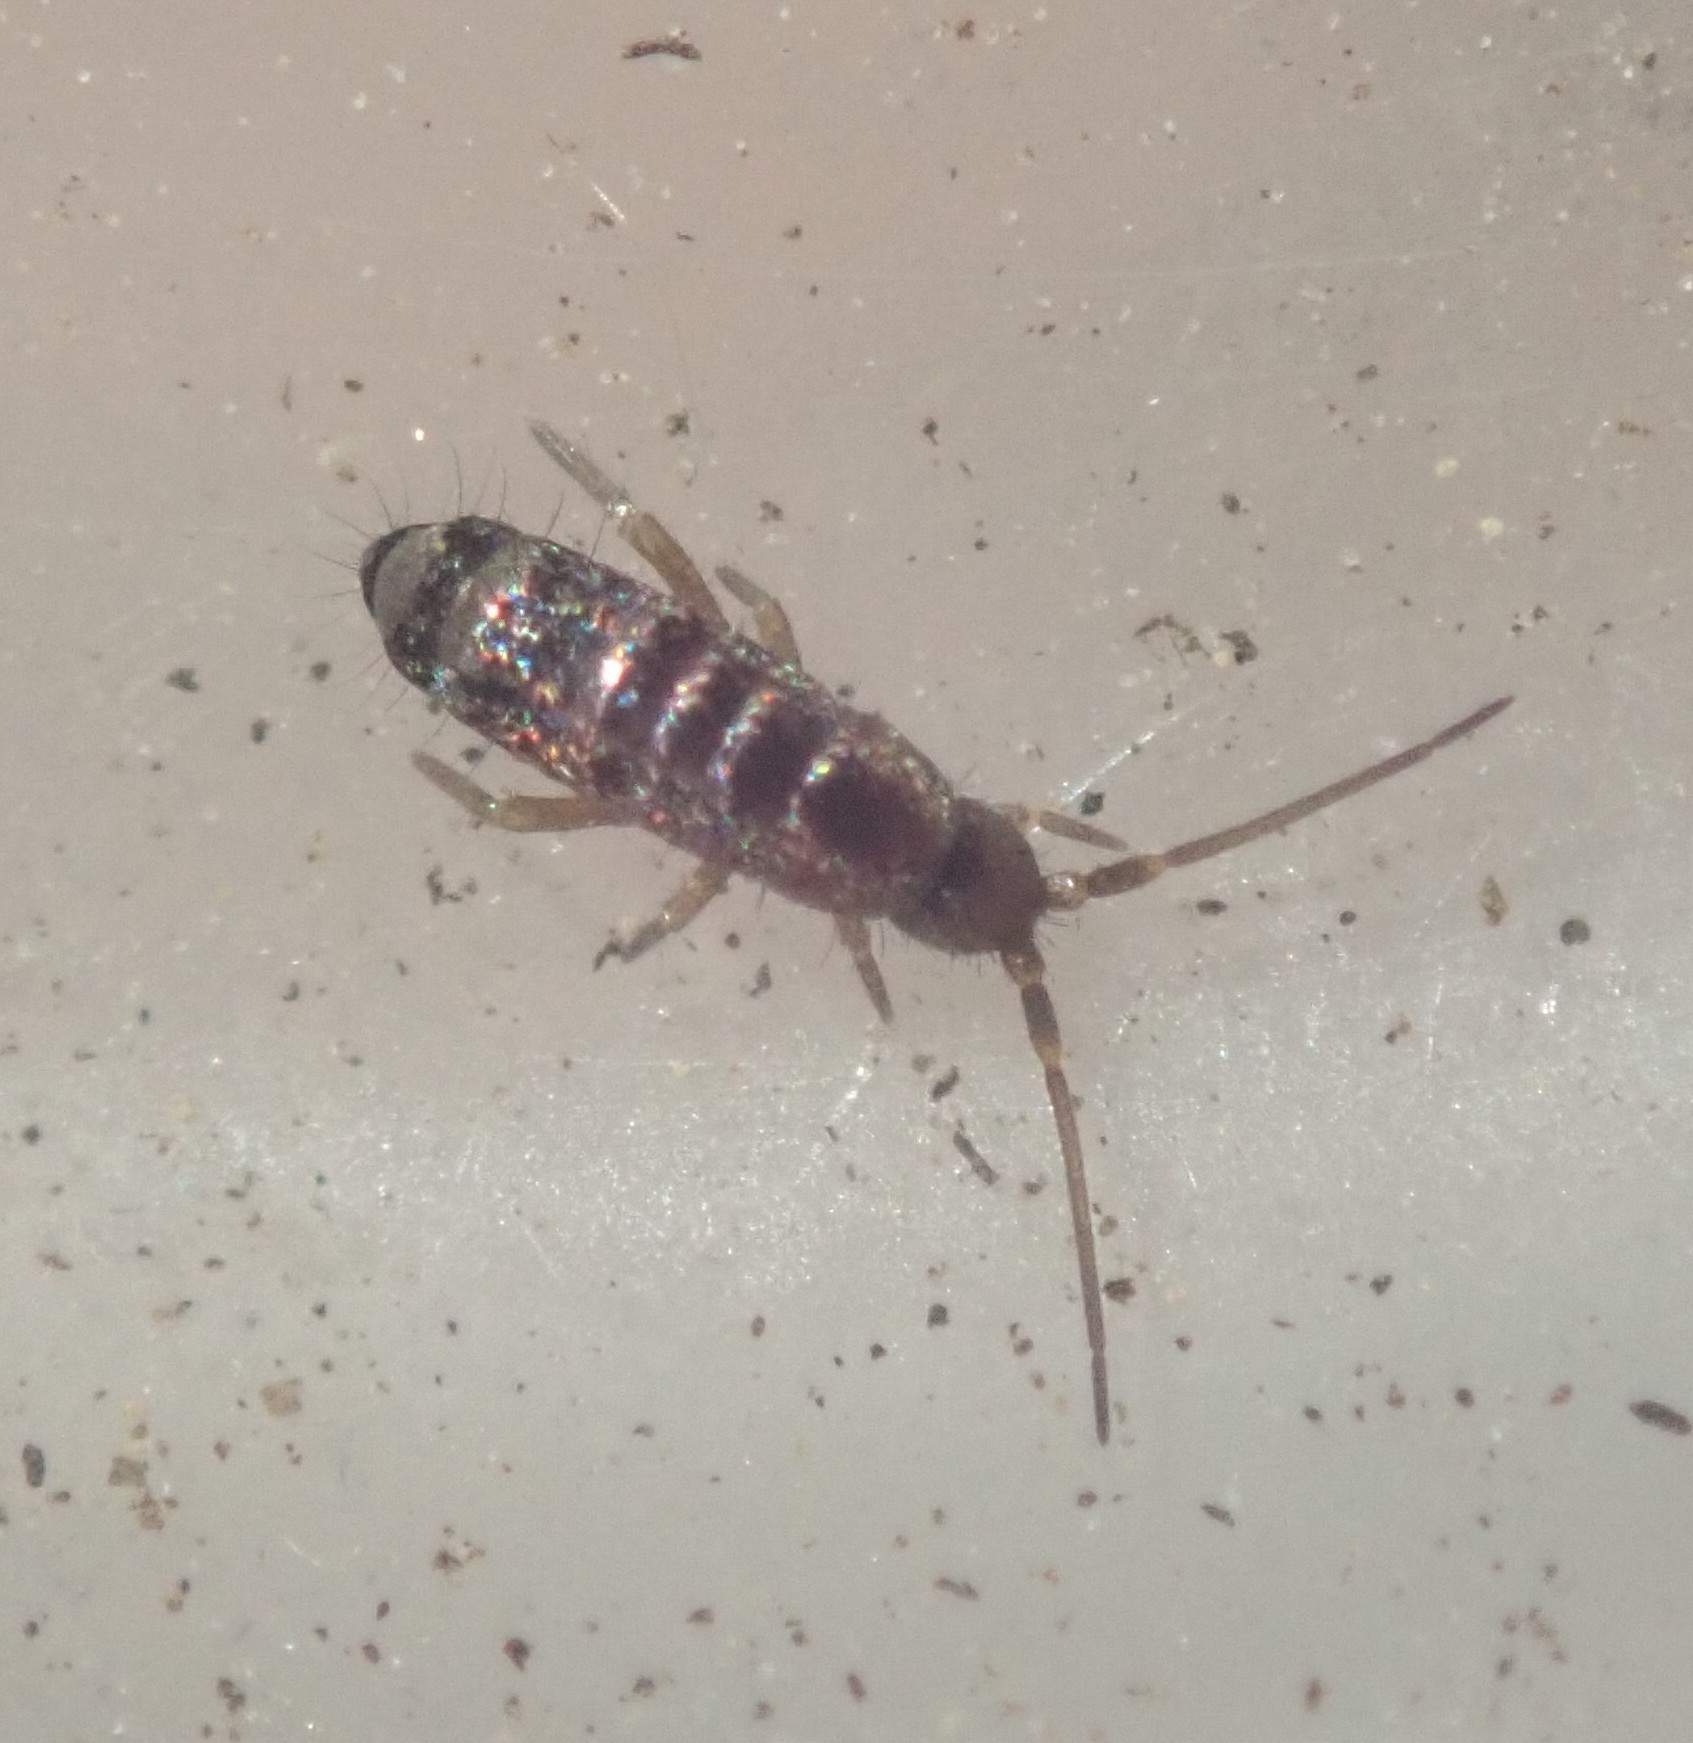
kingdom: Animalia
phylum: Arthropoda
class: Collembola
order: Entomobryomorpha
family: Tomoceridae
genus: Tomocerus
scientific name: Tomocerus vulgaris
